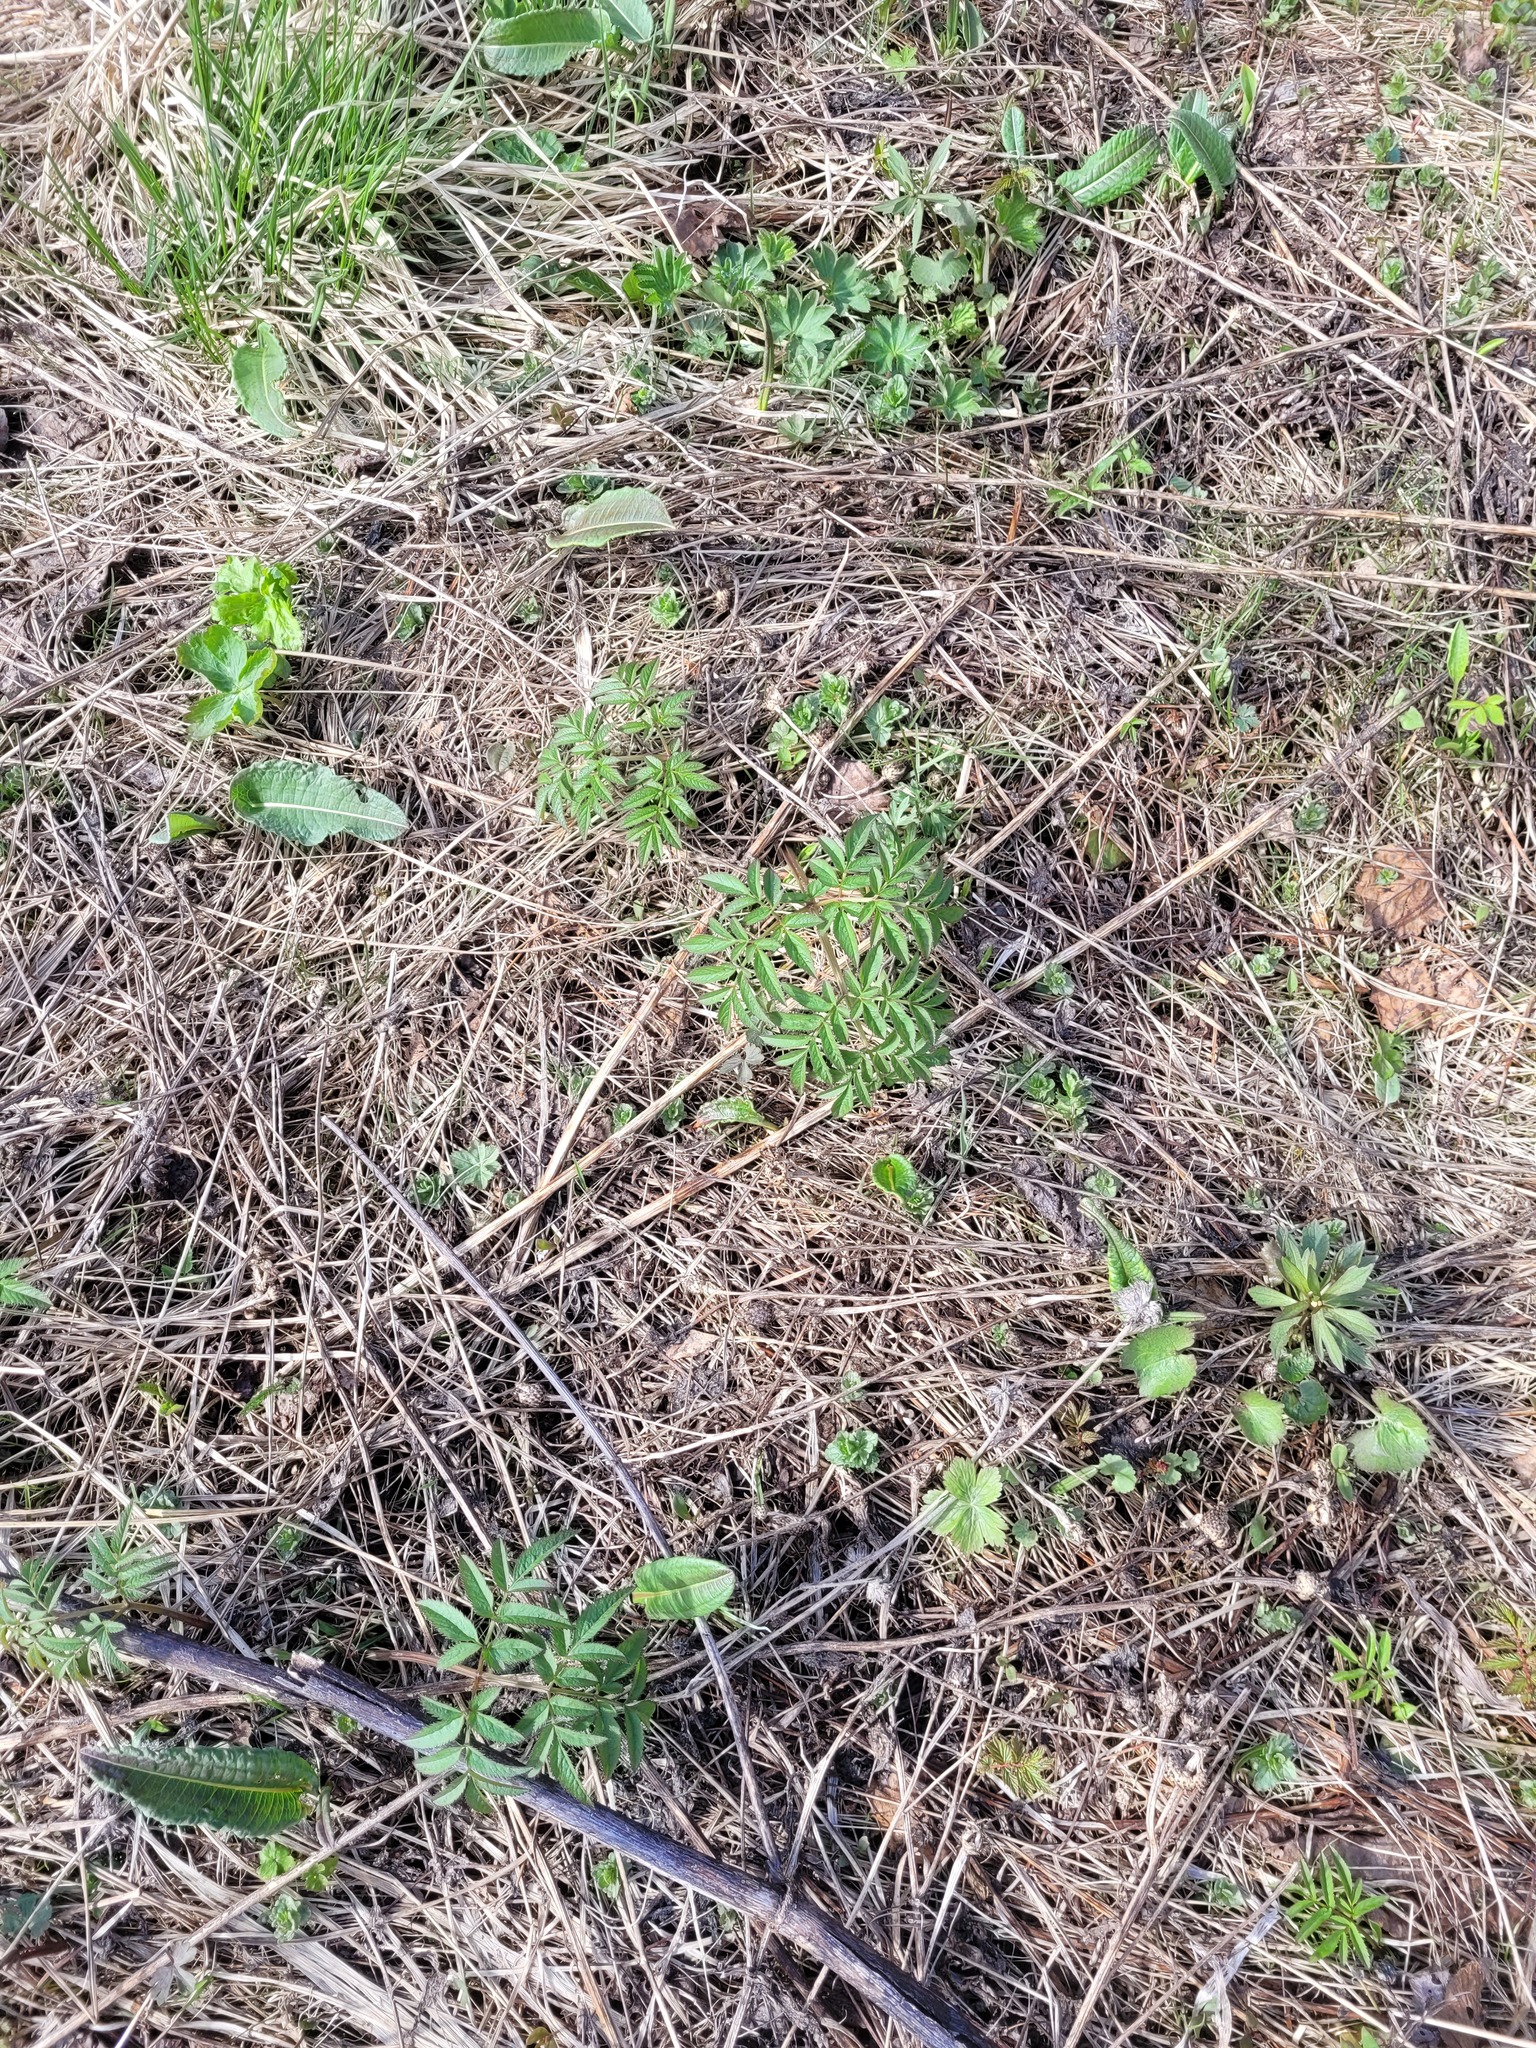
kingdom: Plantae
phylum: Tracheophyta
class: Magnoliopsida
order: Apiales
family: Apiaceae
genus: Angelica
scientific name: Angelica sylvestris
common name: Wild angelica
